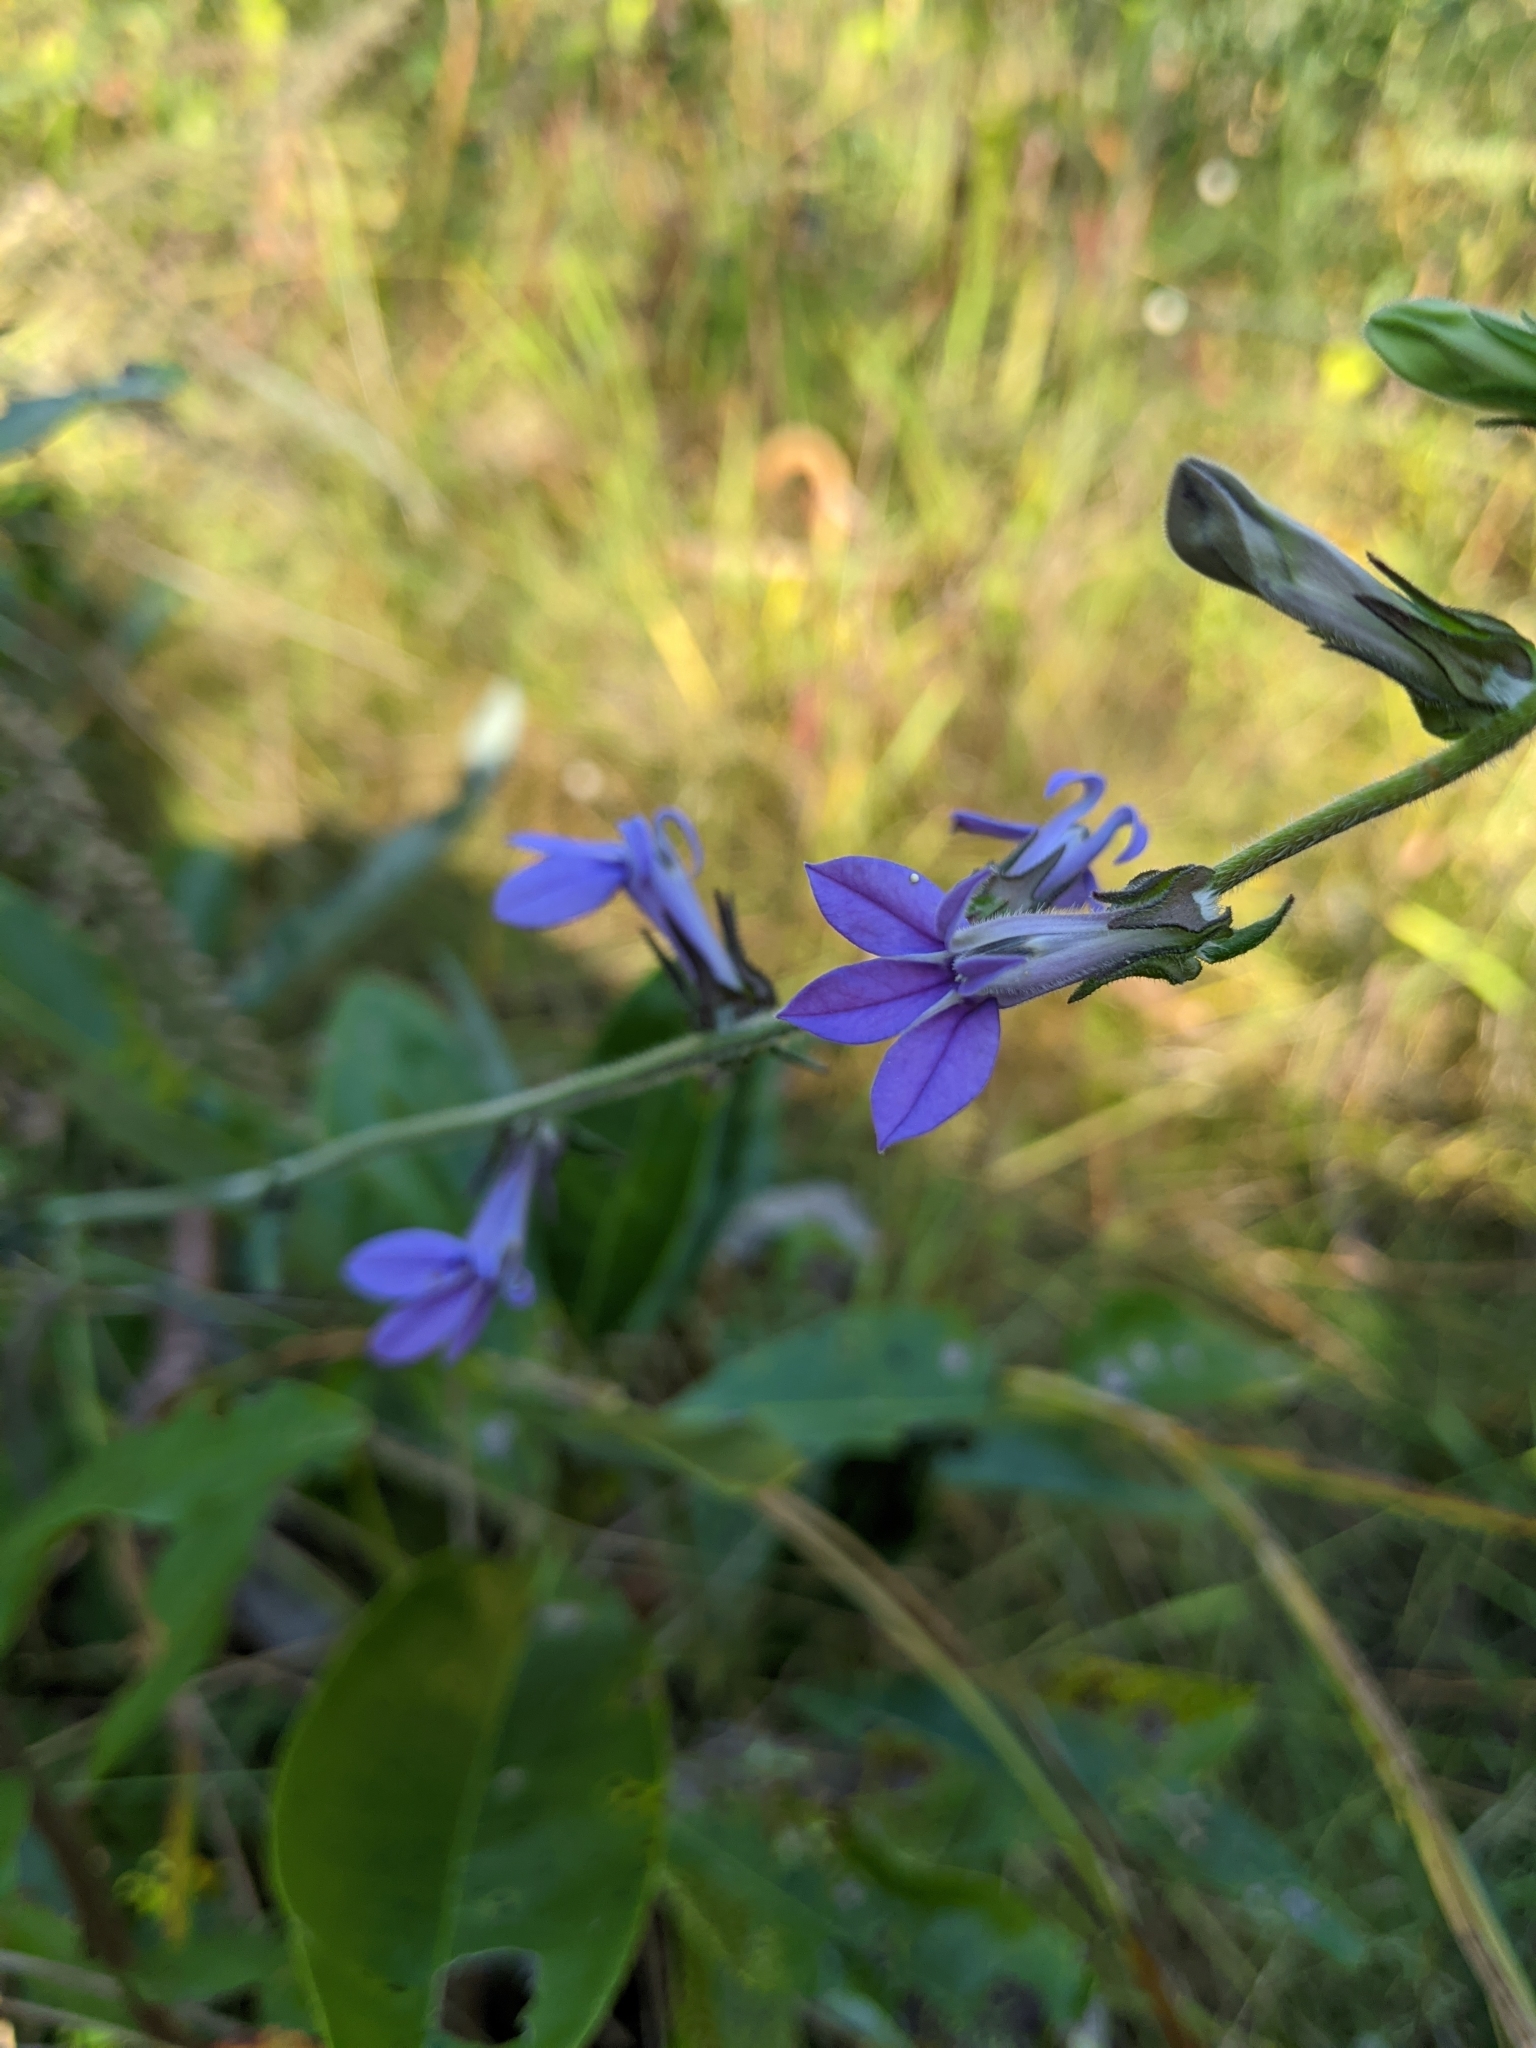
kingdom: Plantae
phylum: Tracheophyta
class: Magnoliopsida
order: Asterales
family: Campanulaceae
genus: Lobelia
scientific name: Lobelia reverchonii
